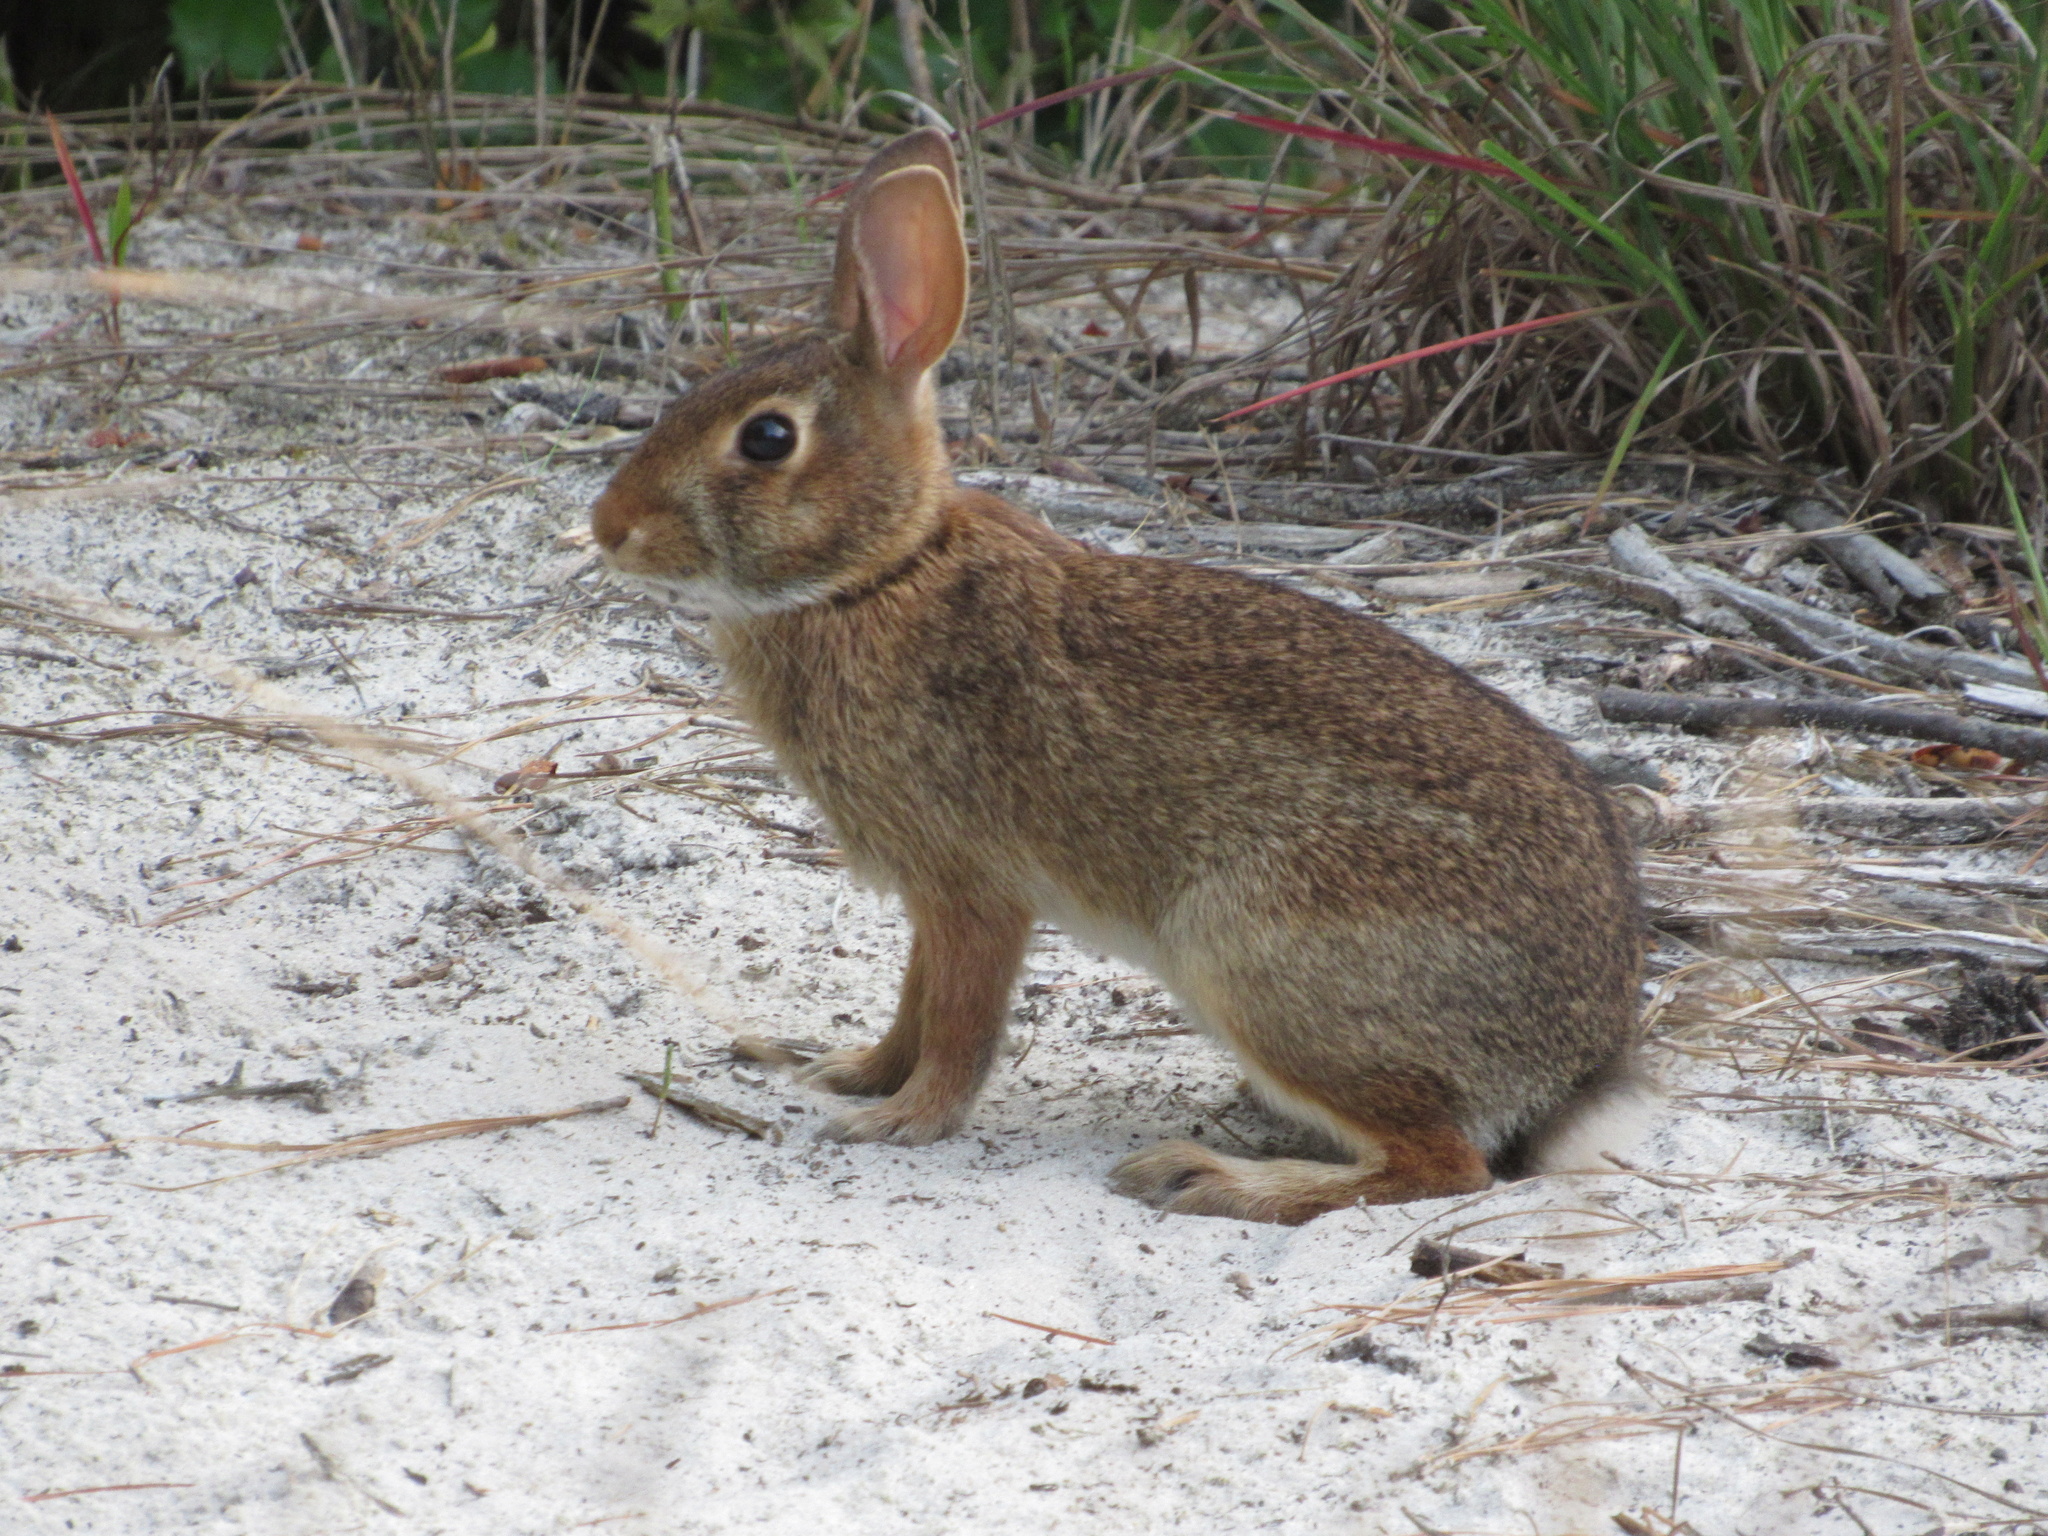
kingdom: Animalia
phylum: Chordata
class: Mammalia
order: Lagomorpha
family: Leporidae
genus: Sylvilagus
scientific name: Sylvilagus floridanus
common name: Eastern cottontail
